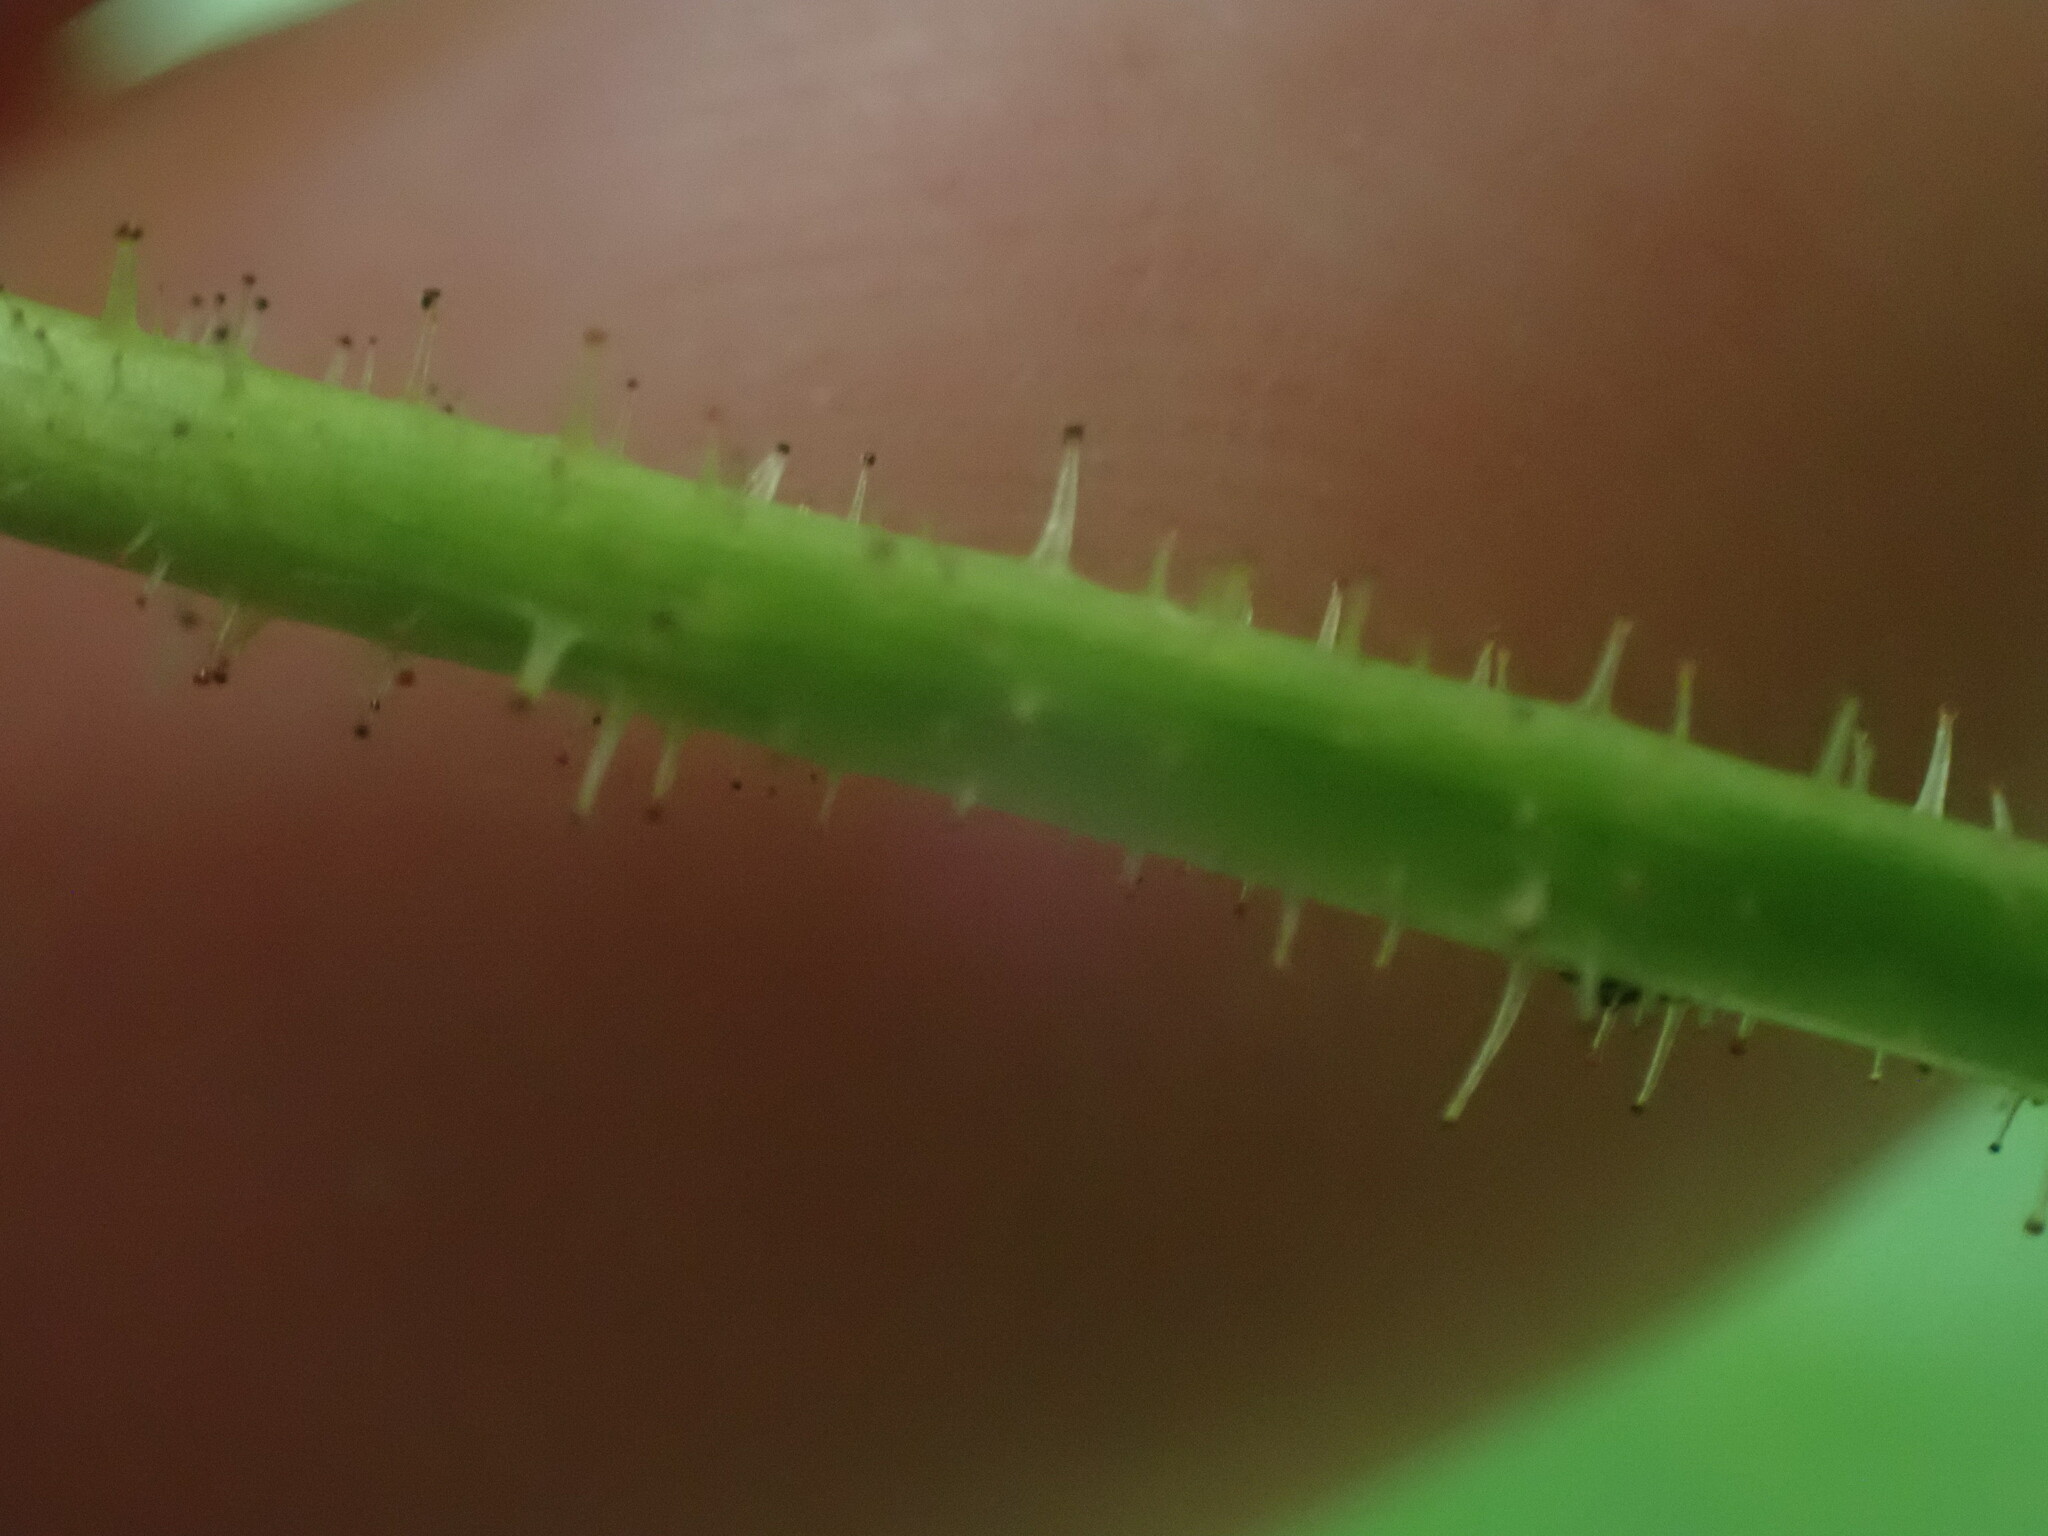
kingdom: Plantae
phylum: Tracheophyta
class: Magnoliopsida
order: Apiales
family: Araliaceae
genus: Oplopanax
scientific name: Oplopanax horridus
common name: Devil's walking-stick
